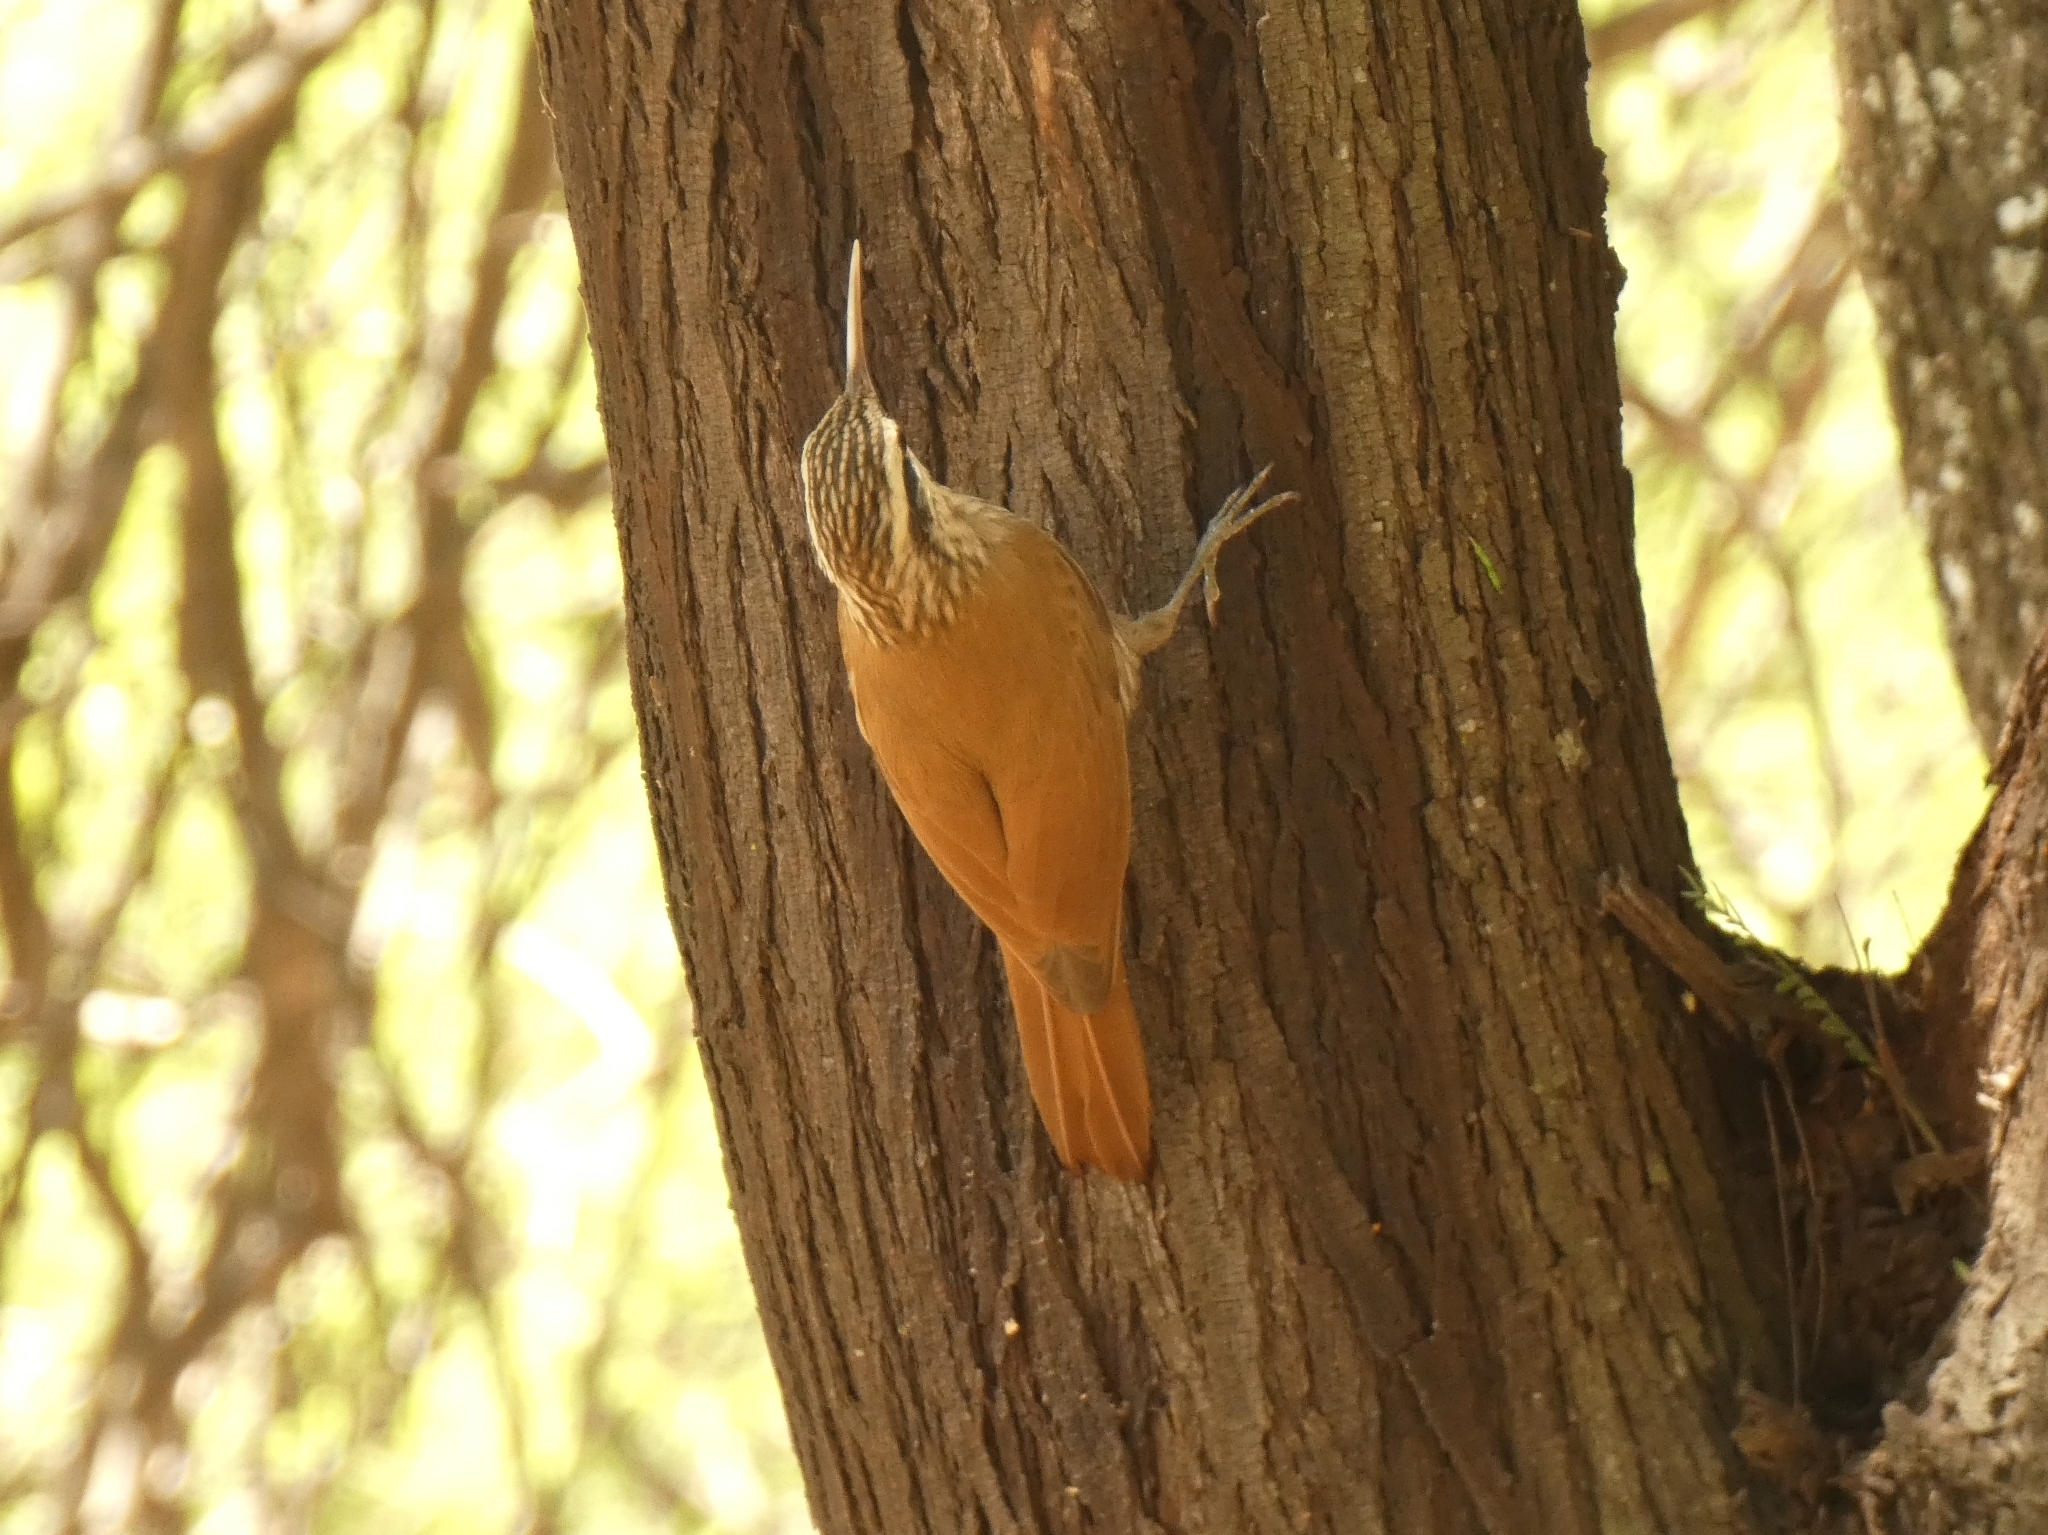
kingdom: Animalia
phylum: Chordata
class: Aves
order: Passeriformes
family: Furnariidae
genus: Lepidocolaptes
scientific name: Lepidocolaptes angustirostris
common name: Narrow-billed woodcreeper
